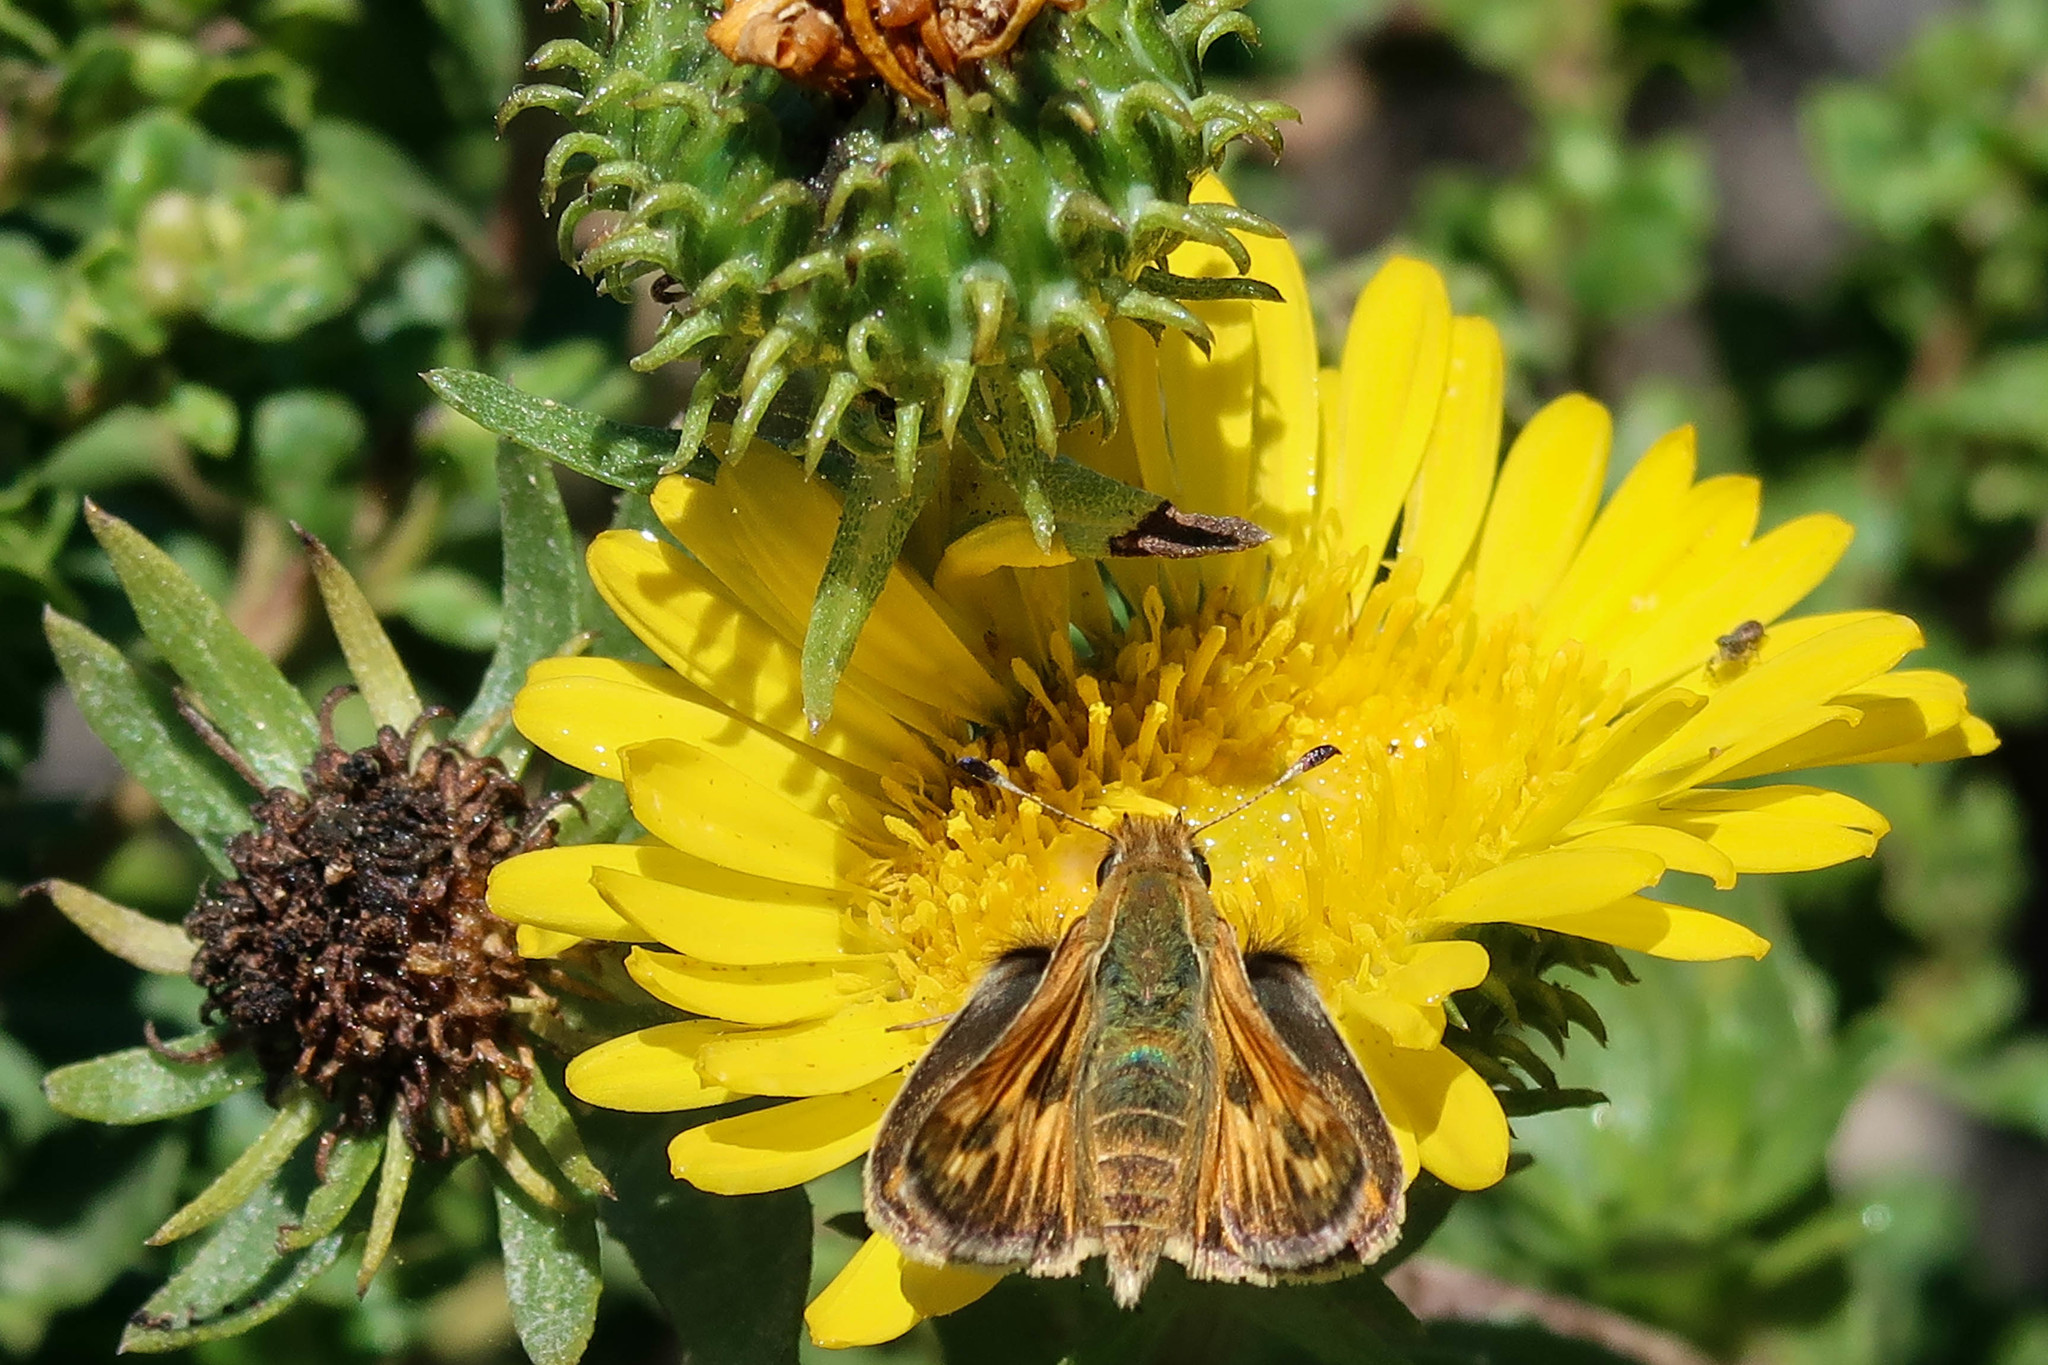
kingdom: Animalia
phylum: Arthropoda
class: Insecta
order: Lepidoptera
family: Hesperiidae
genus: Polites
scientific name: Polites sabuleti
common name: Sandhill skipper
